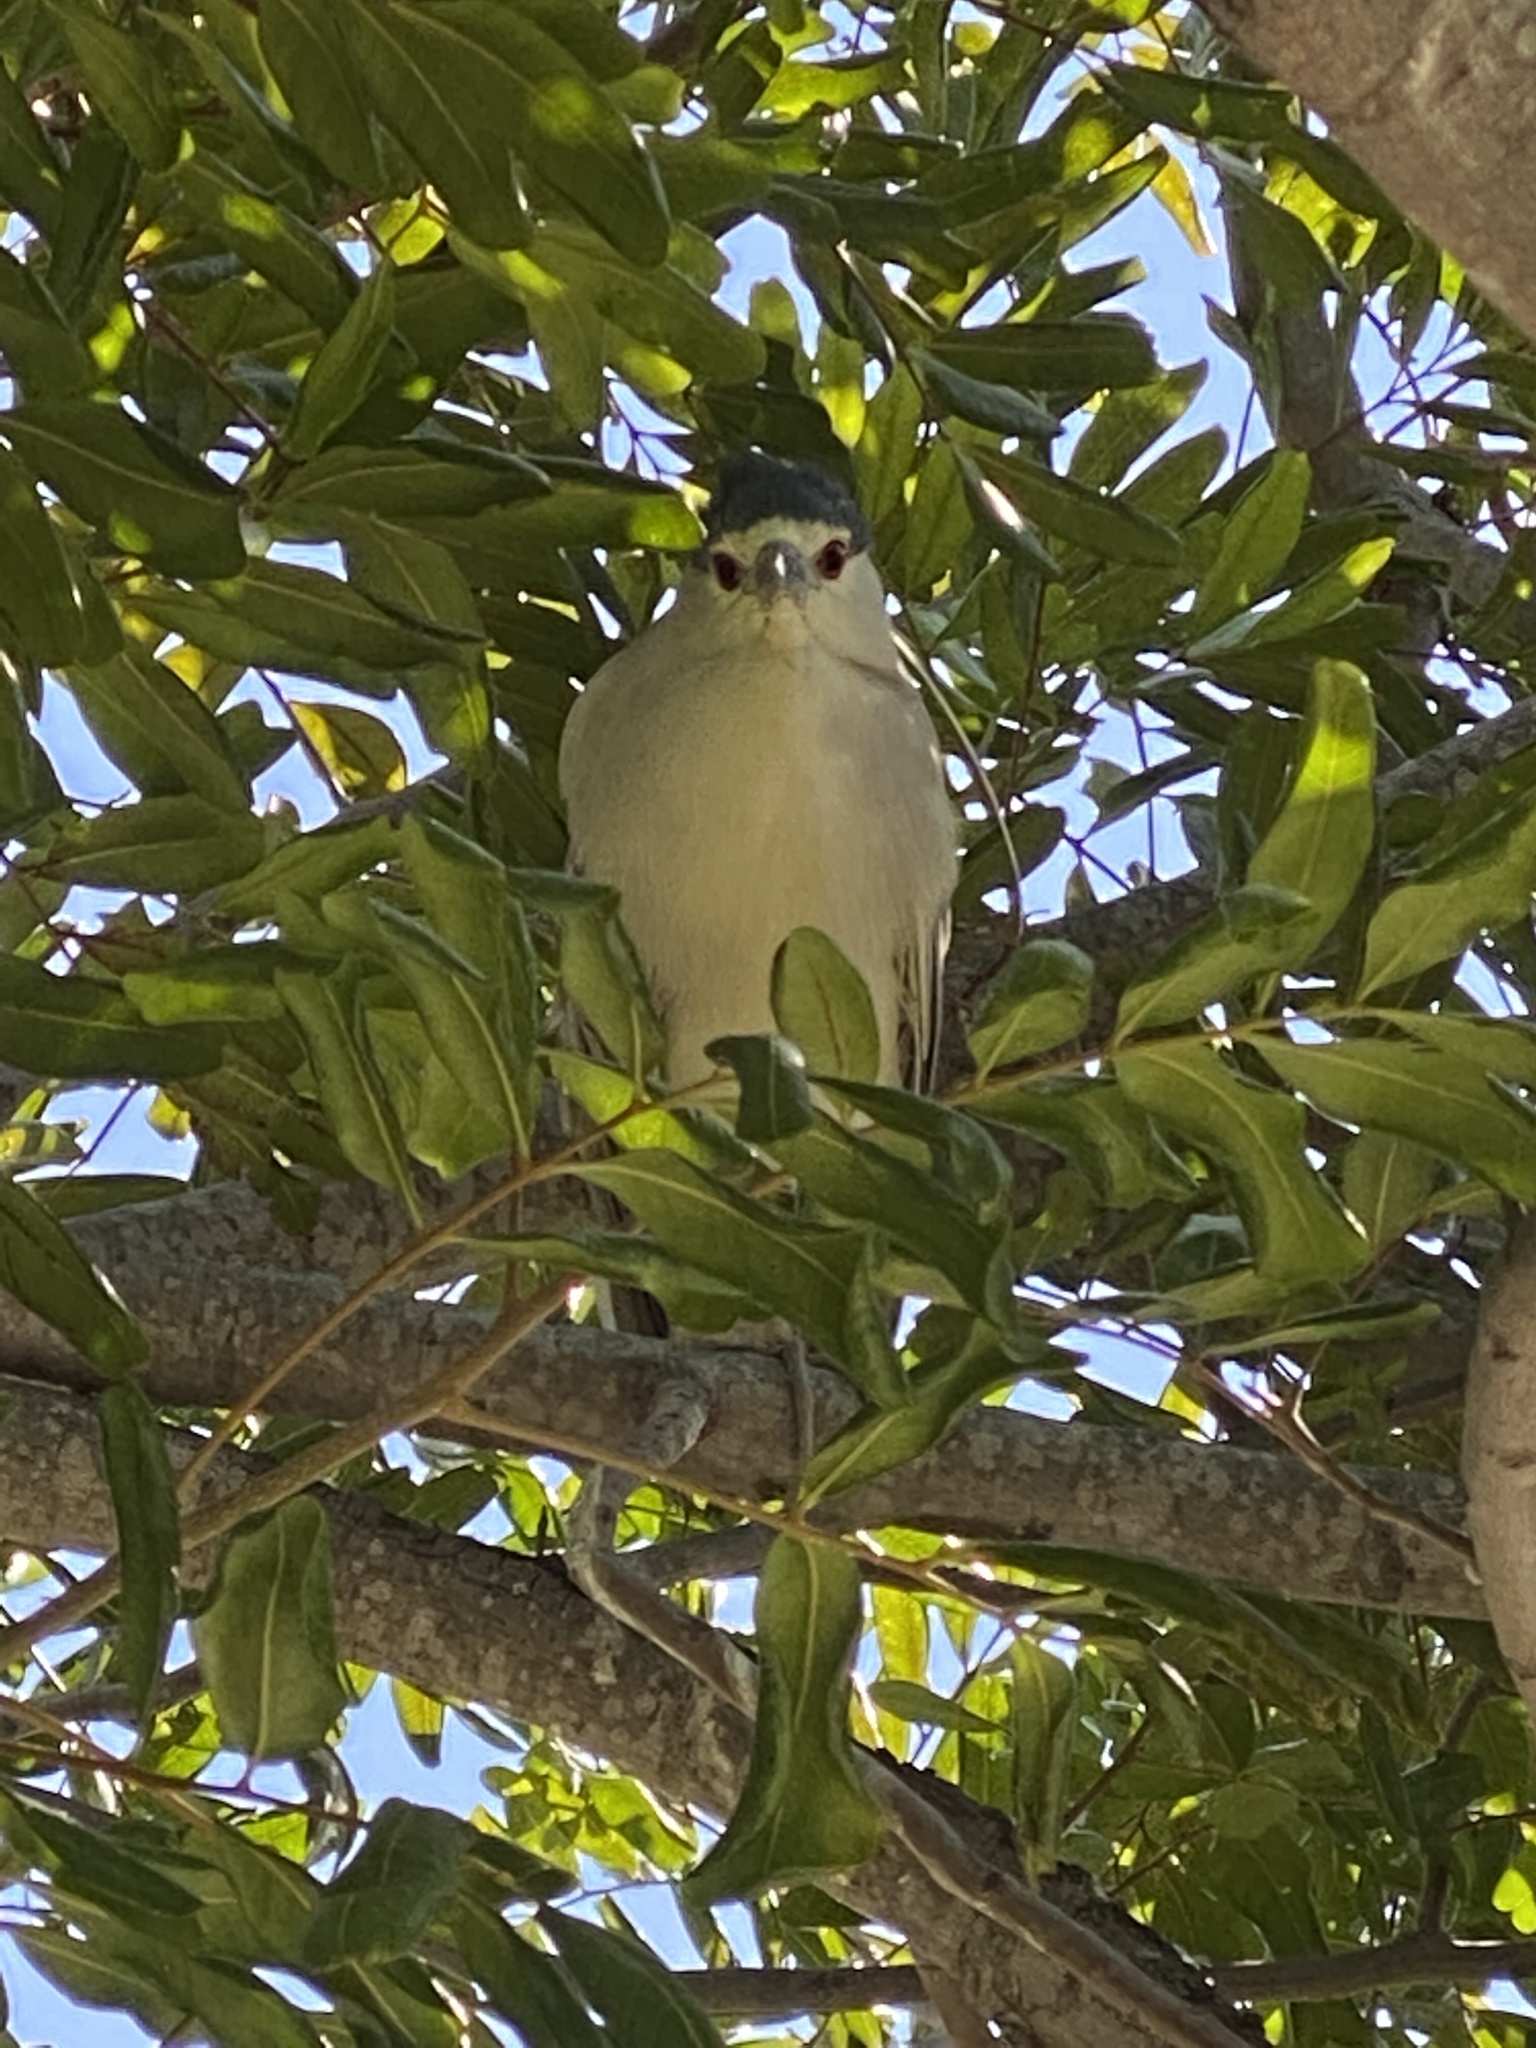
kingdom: Animalia
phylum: Chordata
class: Aves
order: Pelecaniformes
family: Ardeidae
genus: Nycticorax
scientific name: Nycticorax nycticorax
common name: Black-crowned night heron
